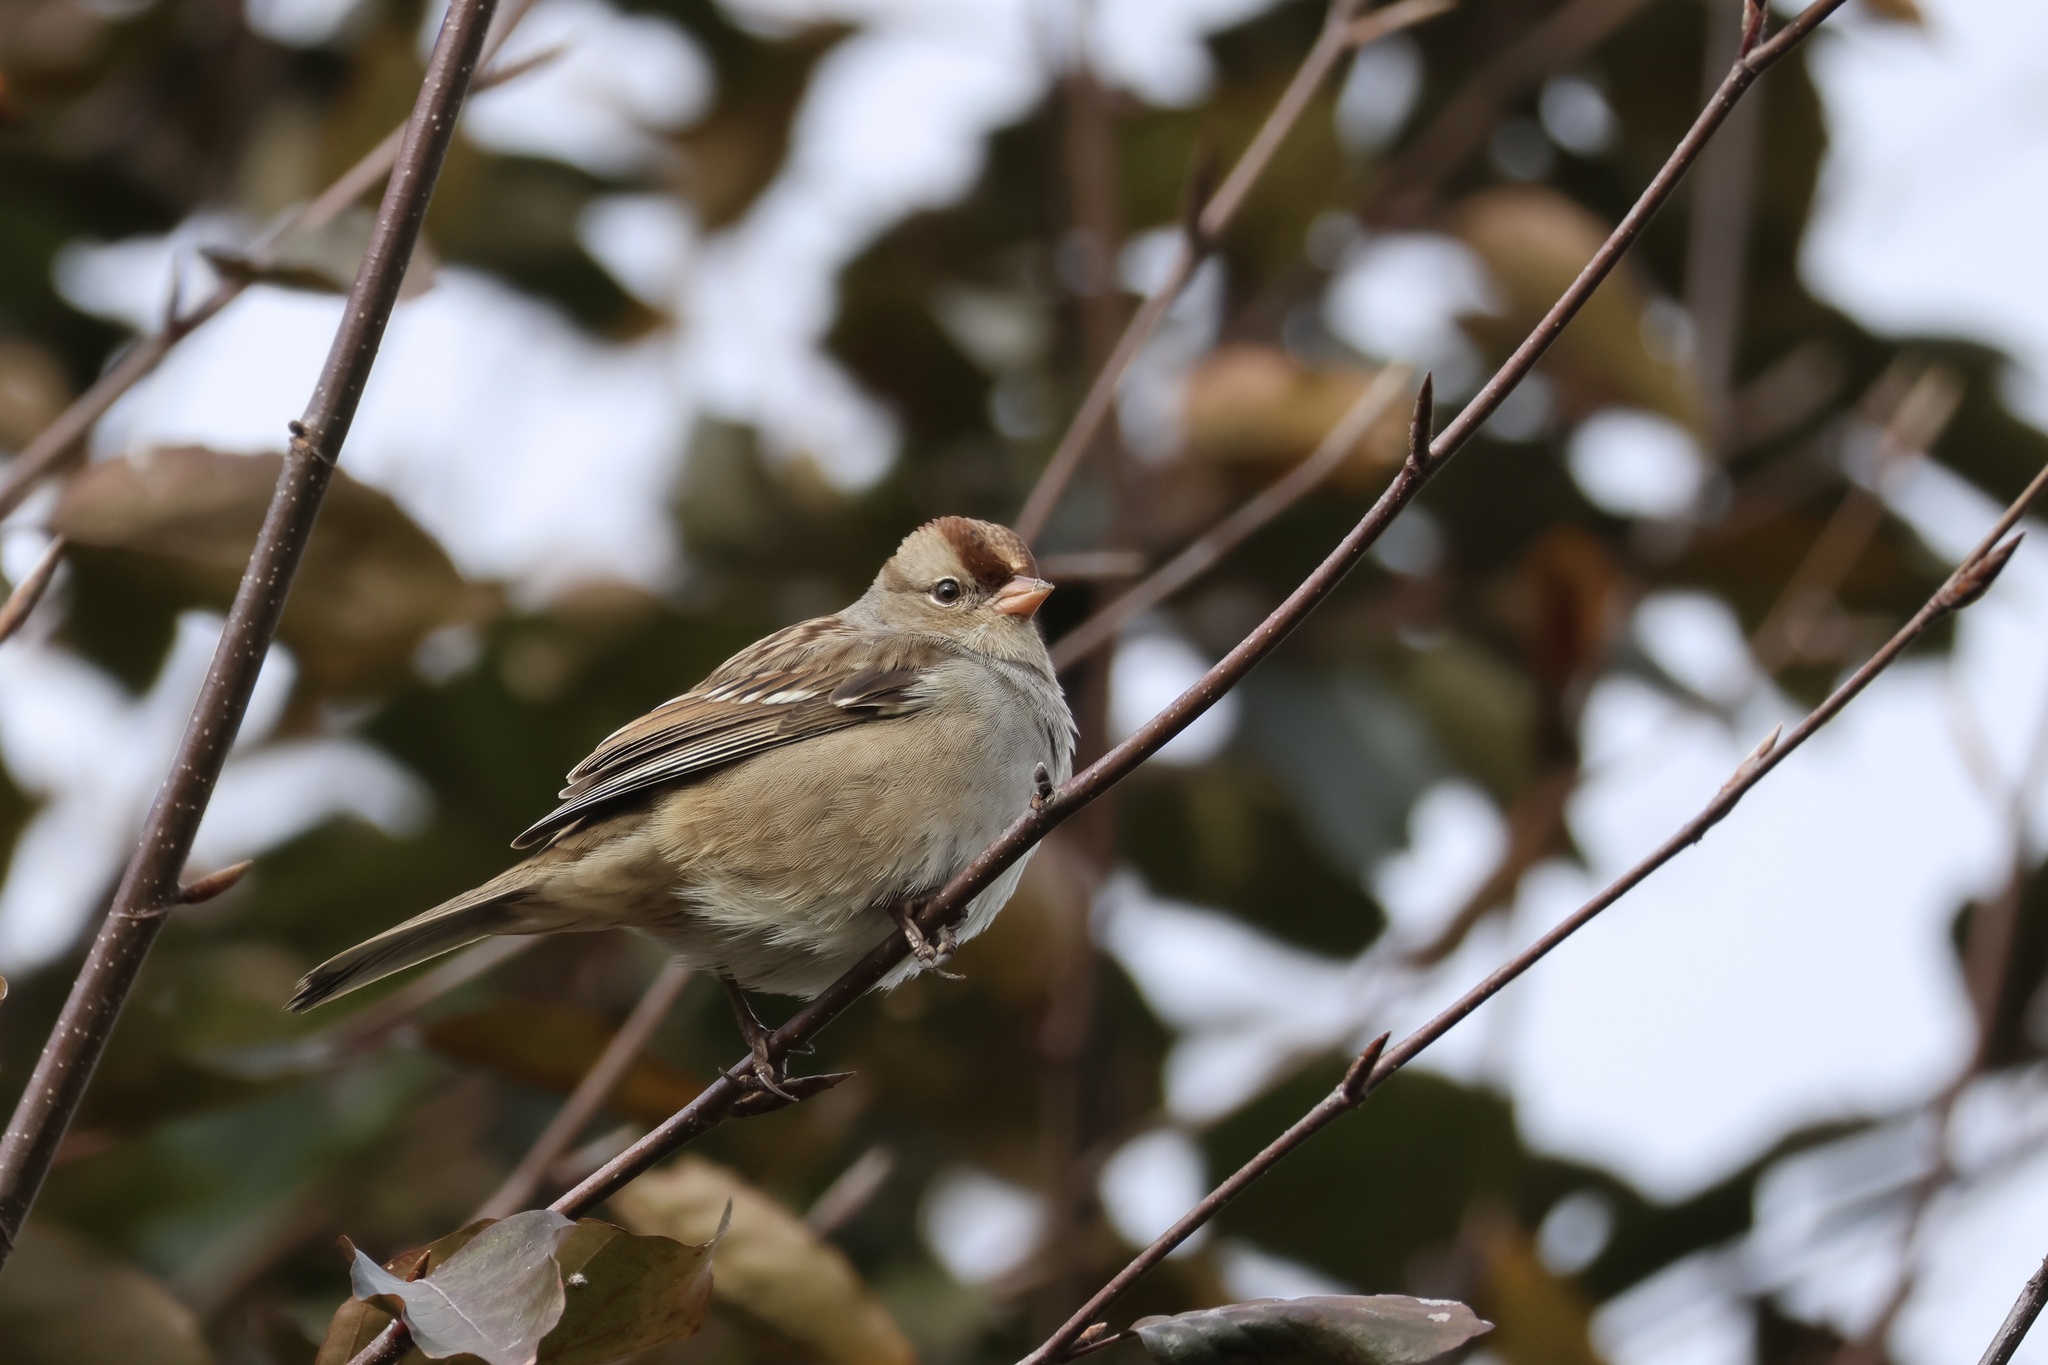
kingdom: Animalia
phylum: Chordata
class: Aves
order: Passeriformes
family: Passerellidae
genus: Zonotrichia
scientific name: Zonotrichia leucophrys
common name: White-crowned sparrow
